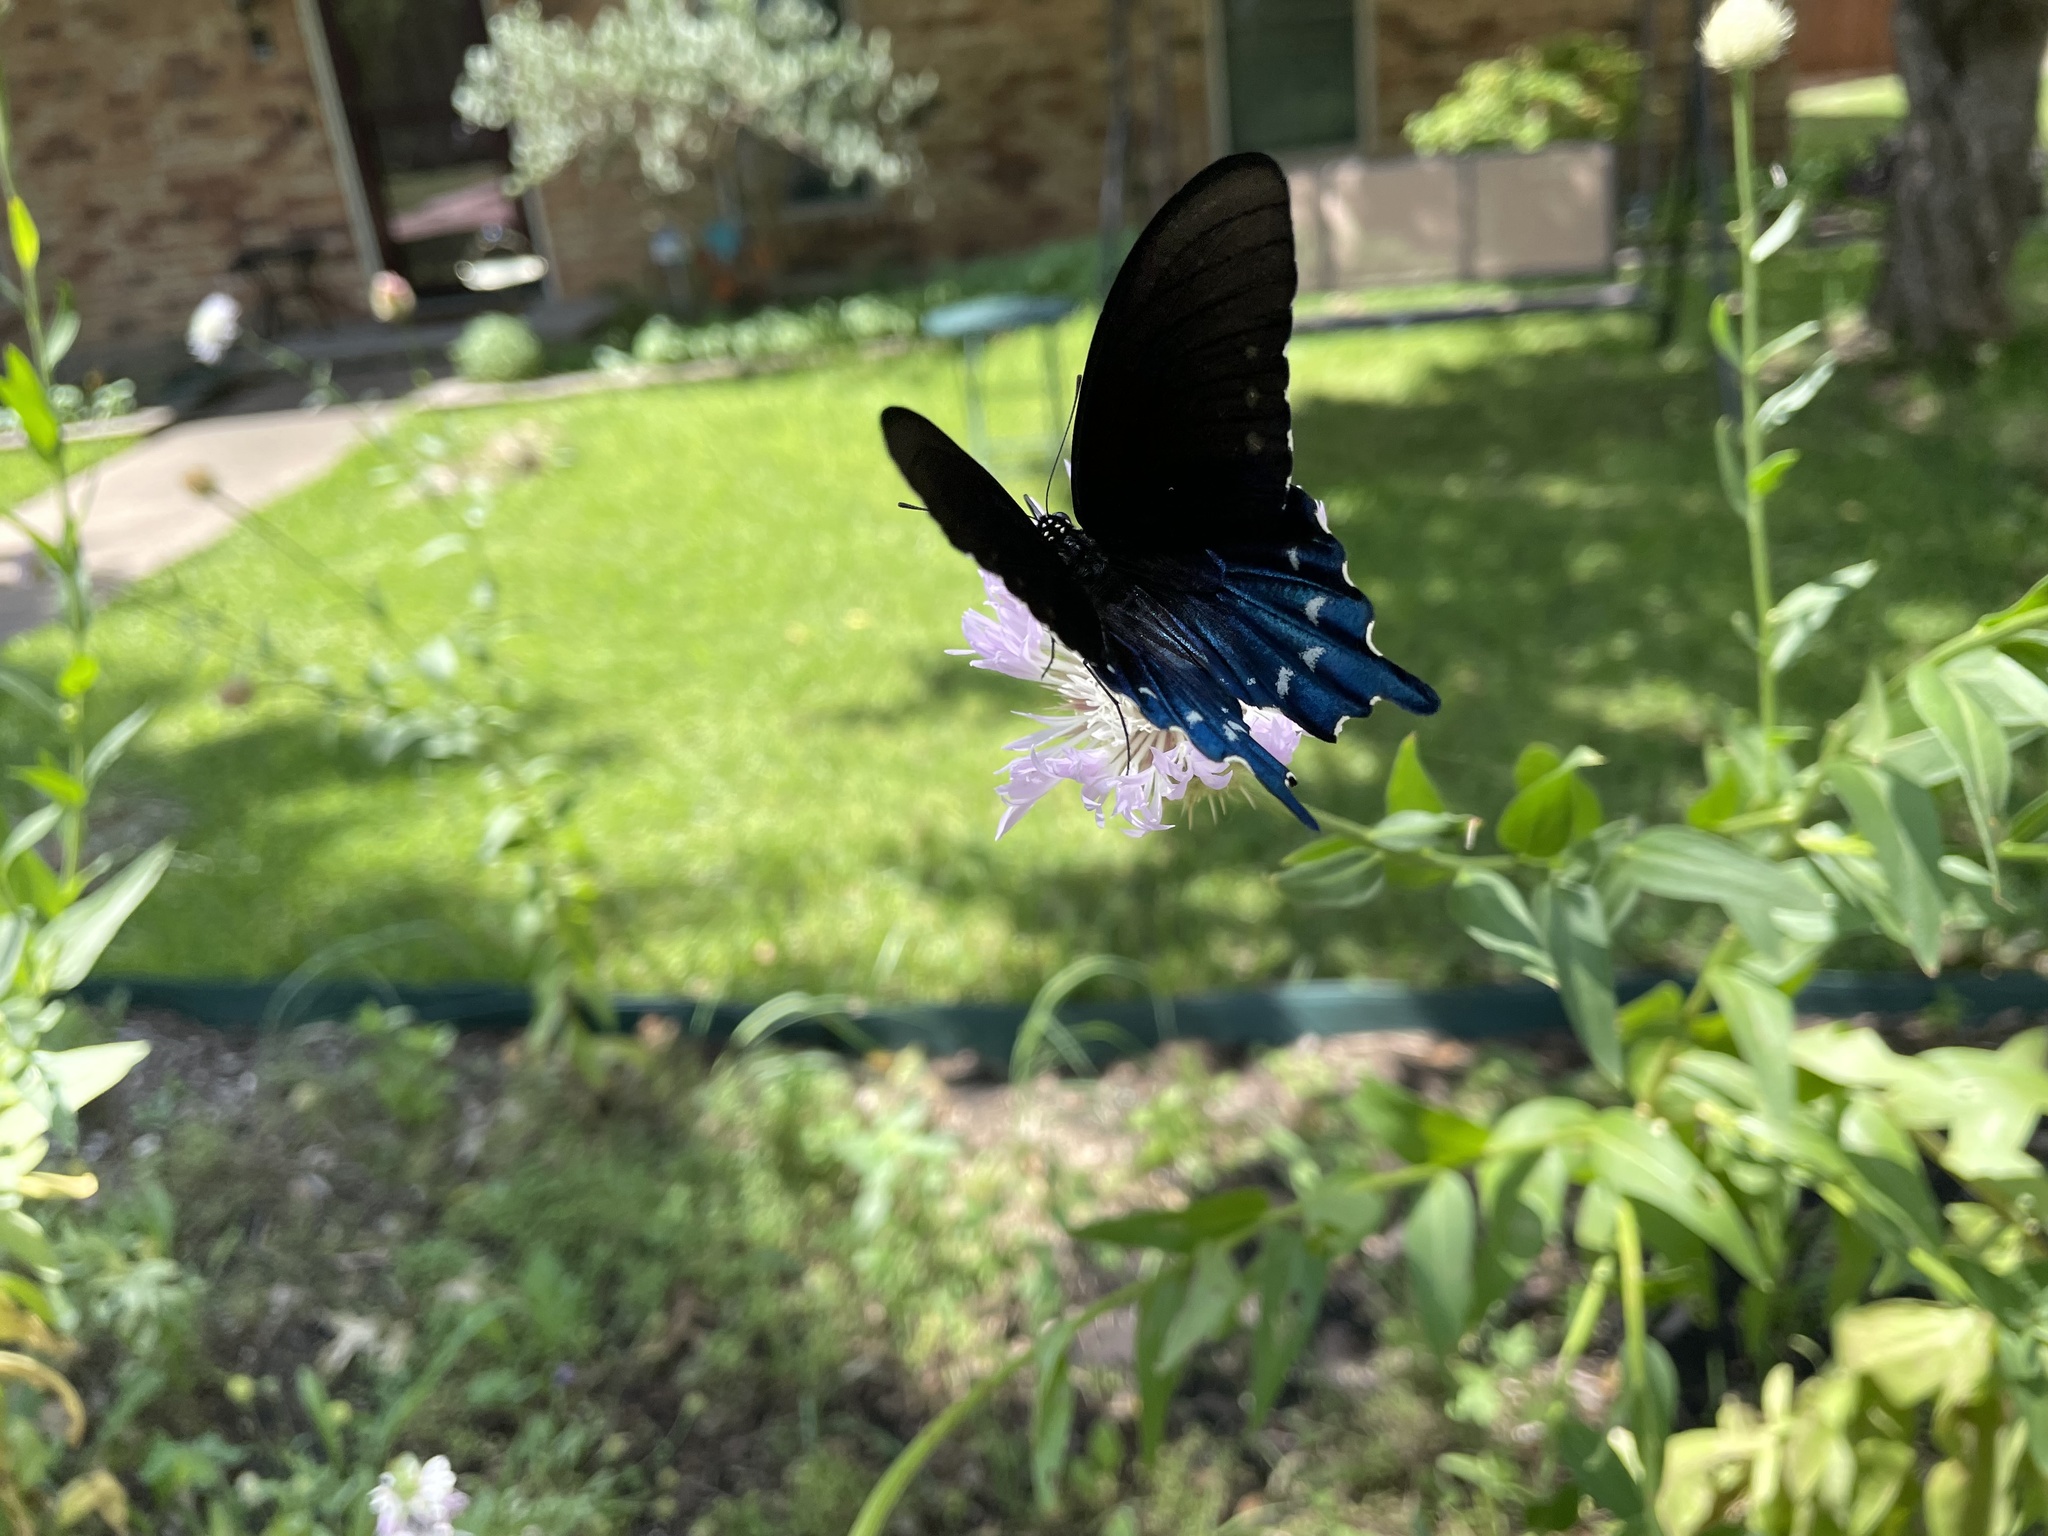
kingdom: Animalia
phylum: Arthropoda
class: Insecta
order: Lepidoptera
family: Papilionidae
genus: Battus
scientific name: Battus philenor
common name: Pipevine swallowtail
